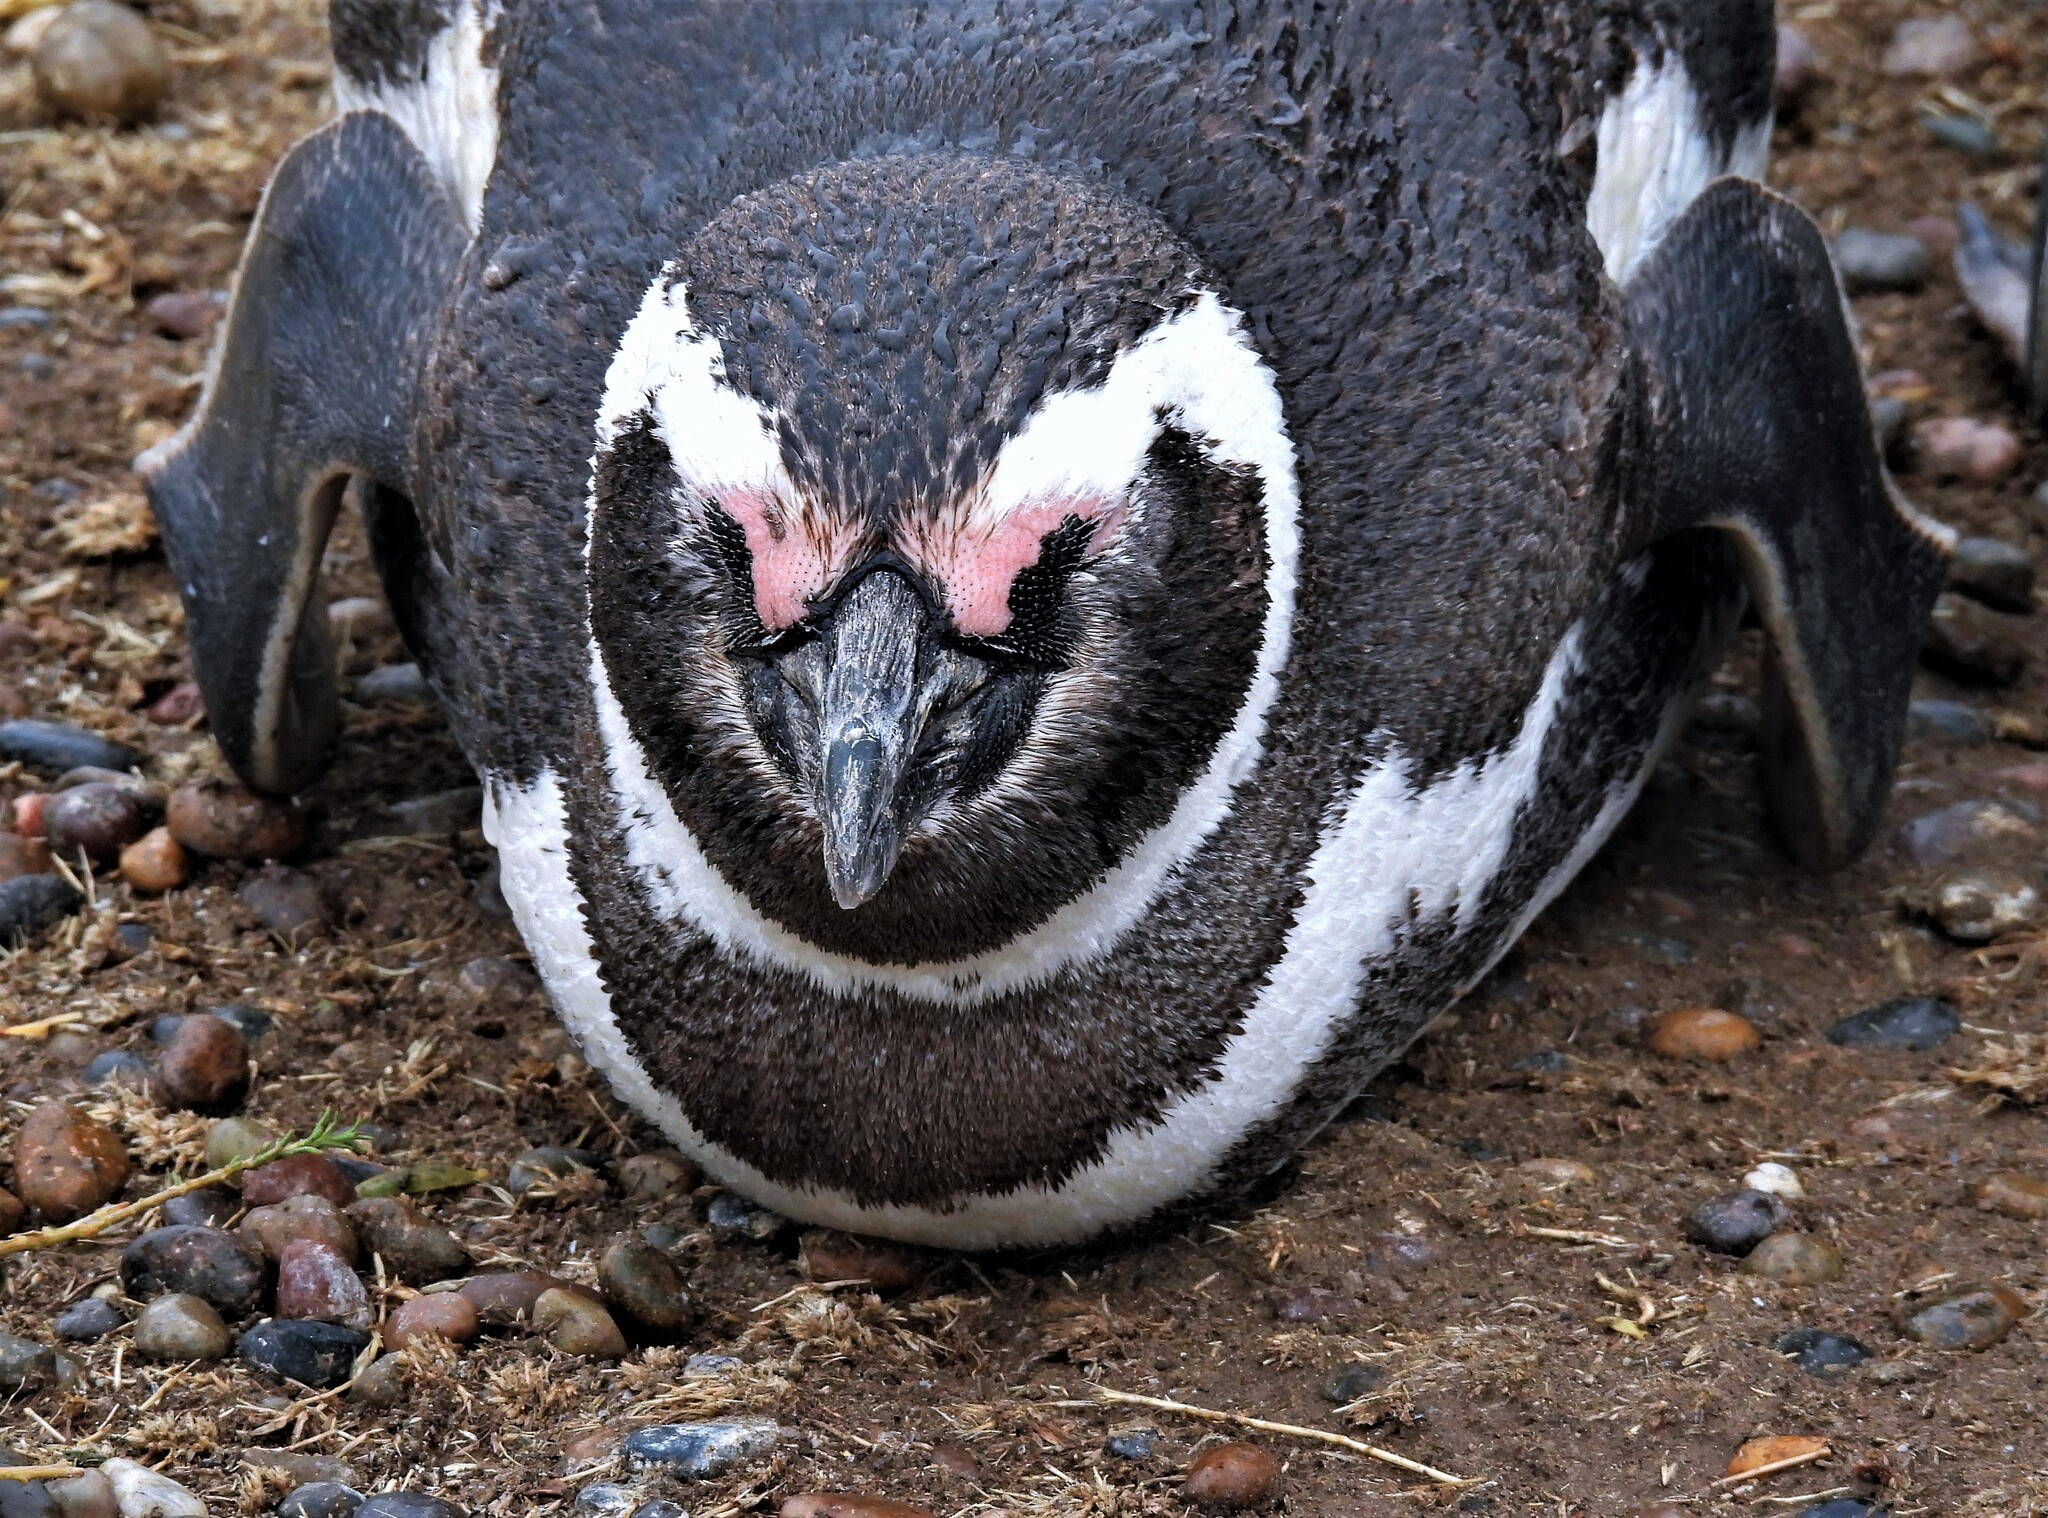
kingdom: Animalia
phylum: Chordata
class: Aves
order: Sphenisciformes
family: Spheniscidae
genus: Spheniscus
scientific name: Spheniscus magellanicus
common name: Magellanic penguin
